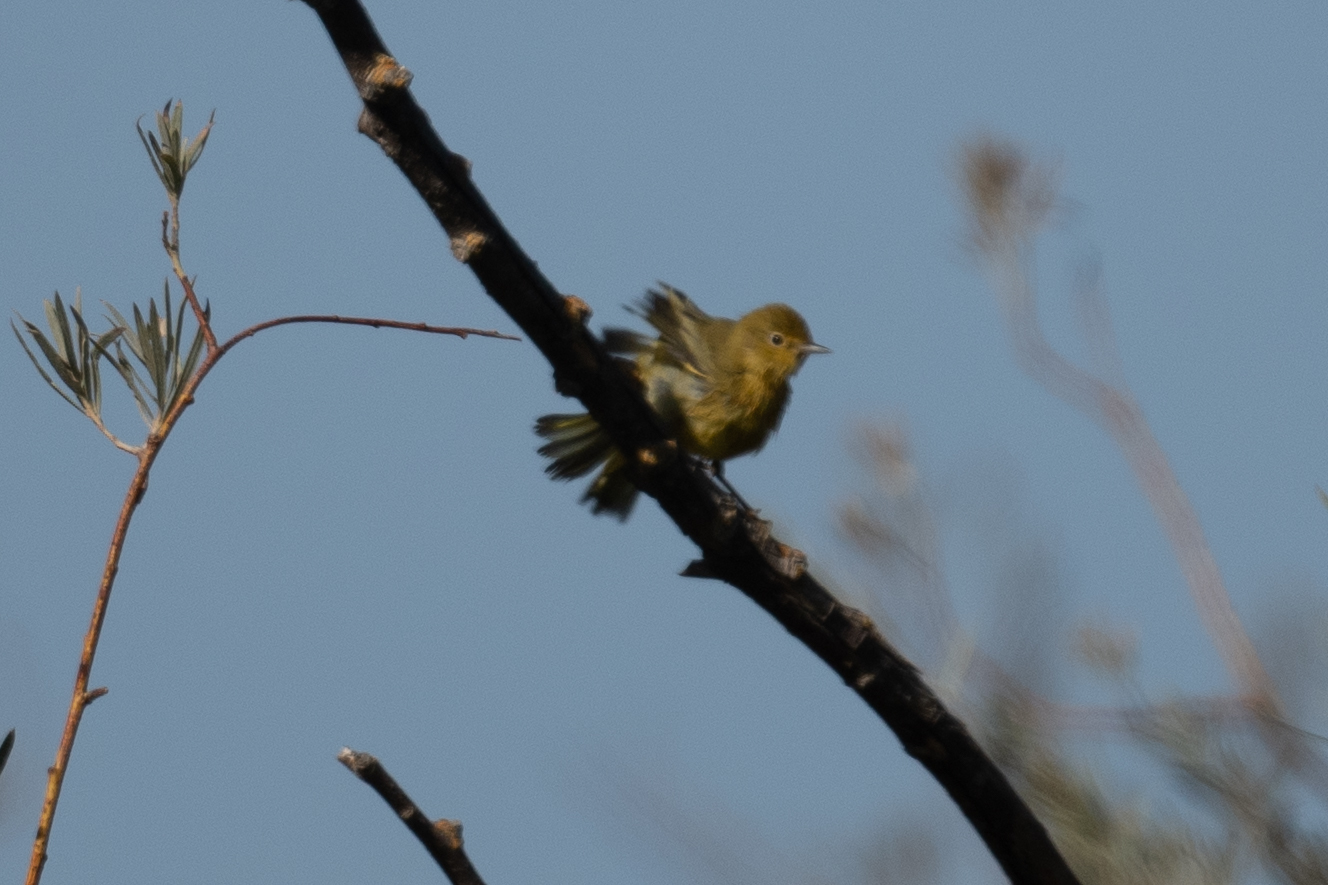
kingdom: Animalia
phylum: Chordata
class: Aves
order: Passeriformes
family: Parulidae
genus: Setophaga
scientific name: Setophaga petechia
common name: Yellow warbler
